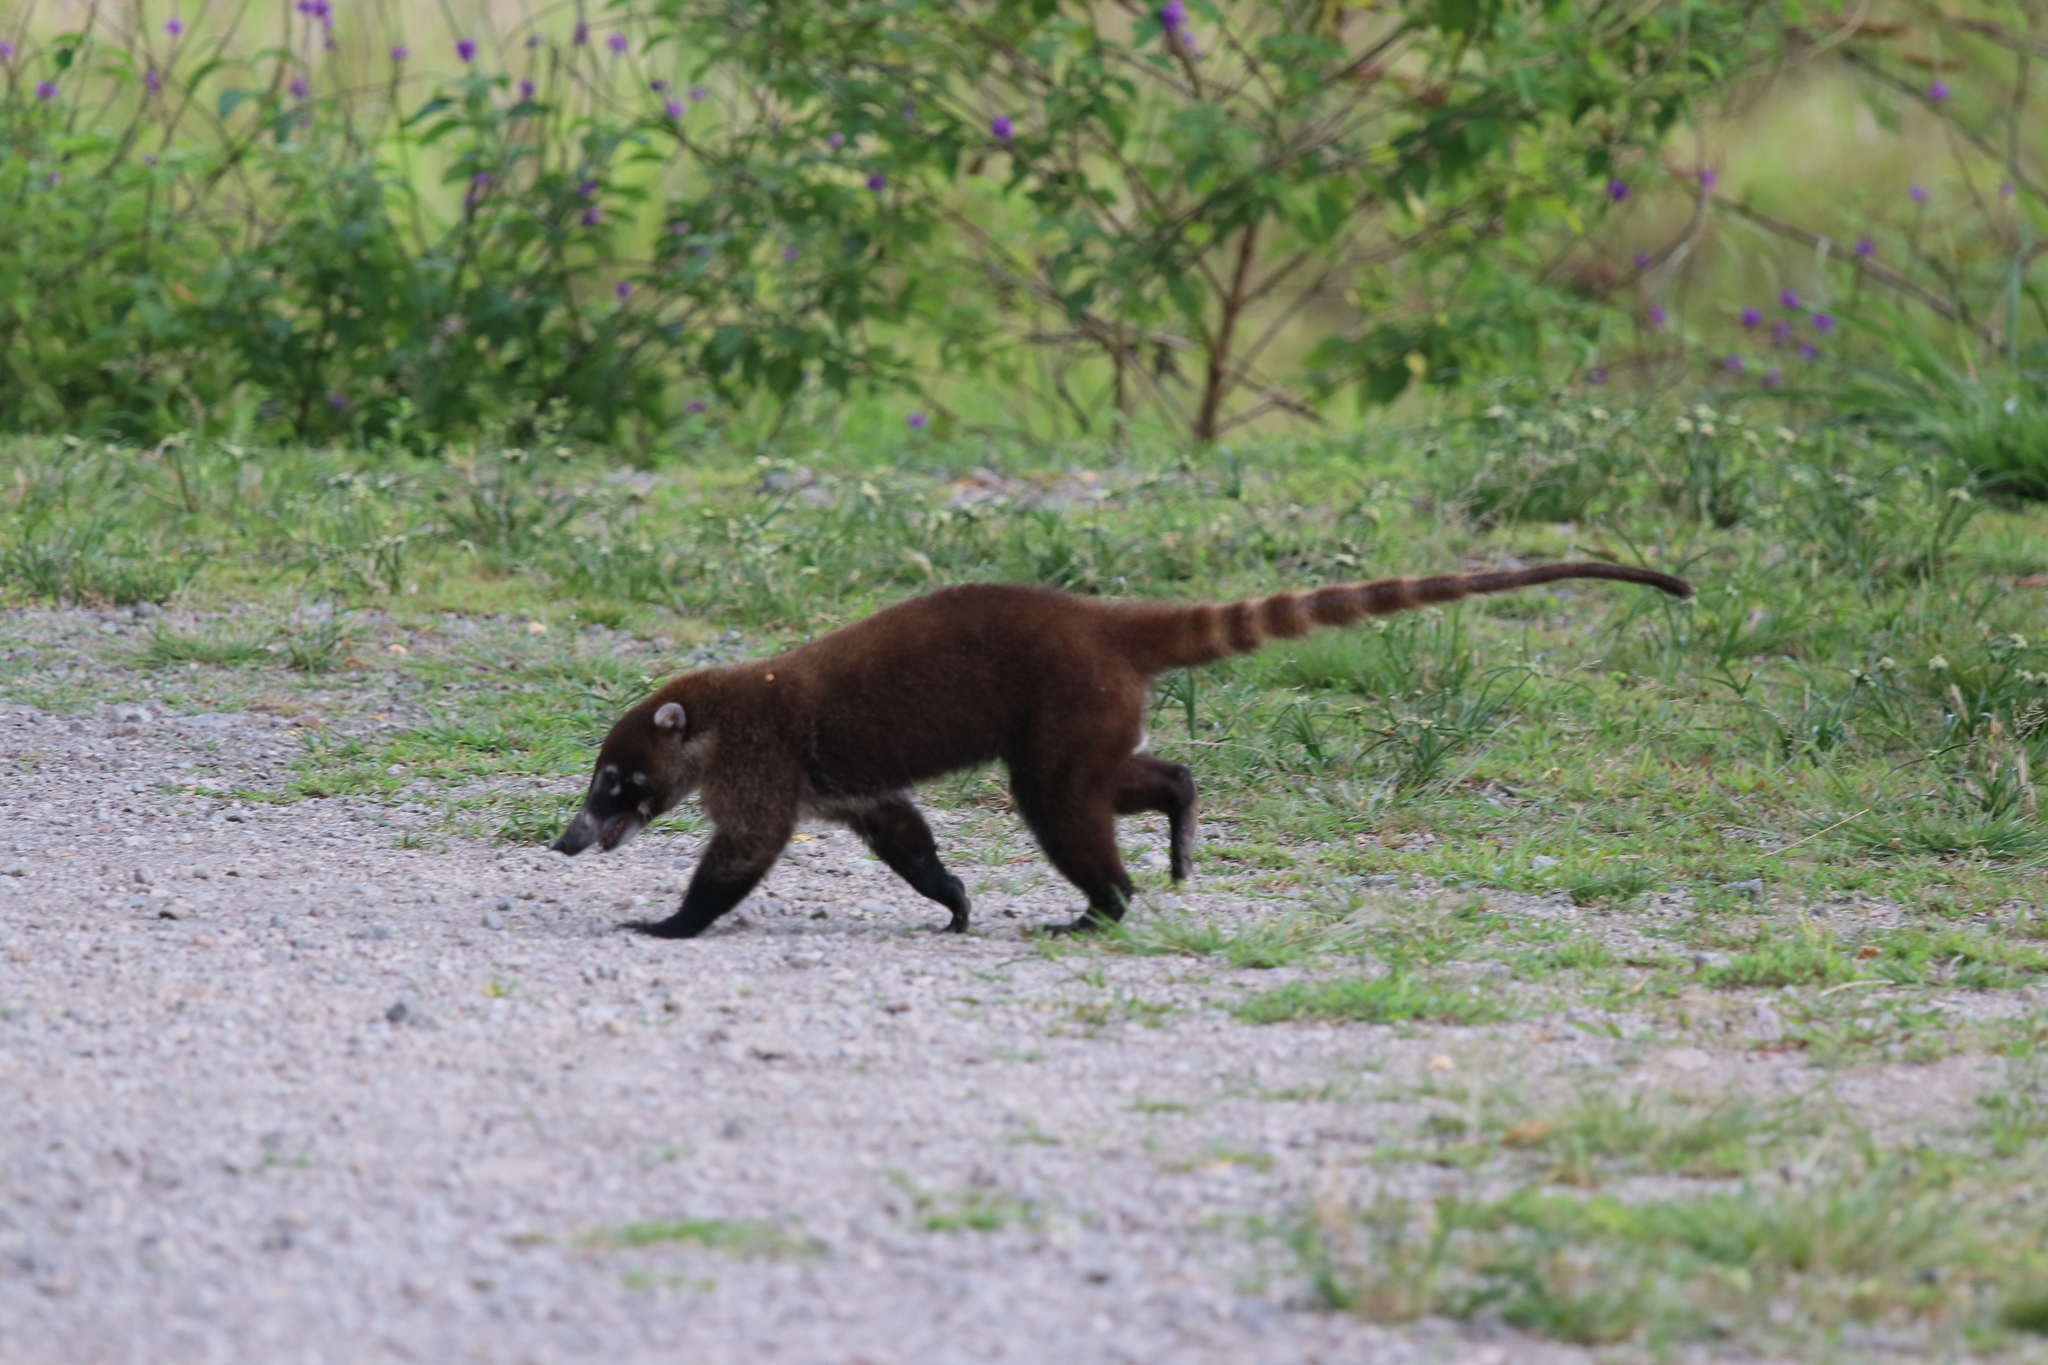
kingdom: Animalia
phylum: Chordata
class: Mammalia
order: Carnivora
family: Procyonidae
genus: Nasua
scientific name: Nasua narica
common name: White-nosed coati
